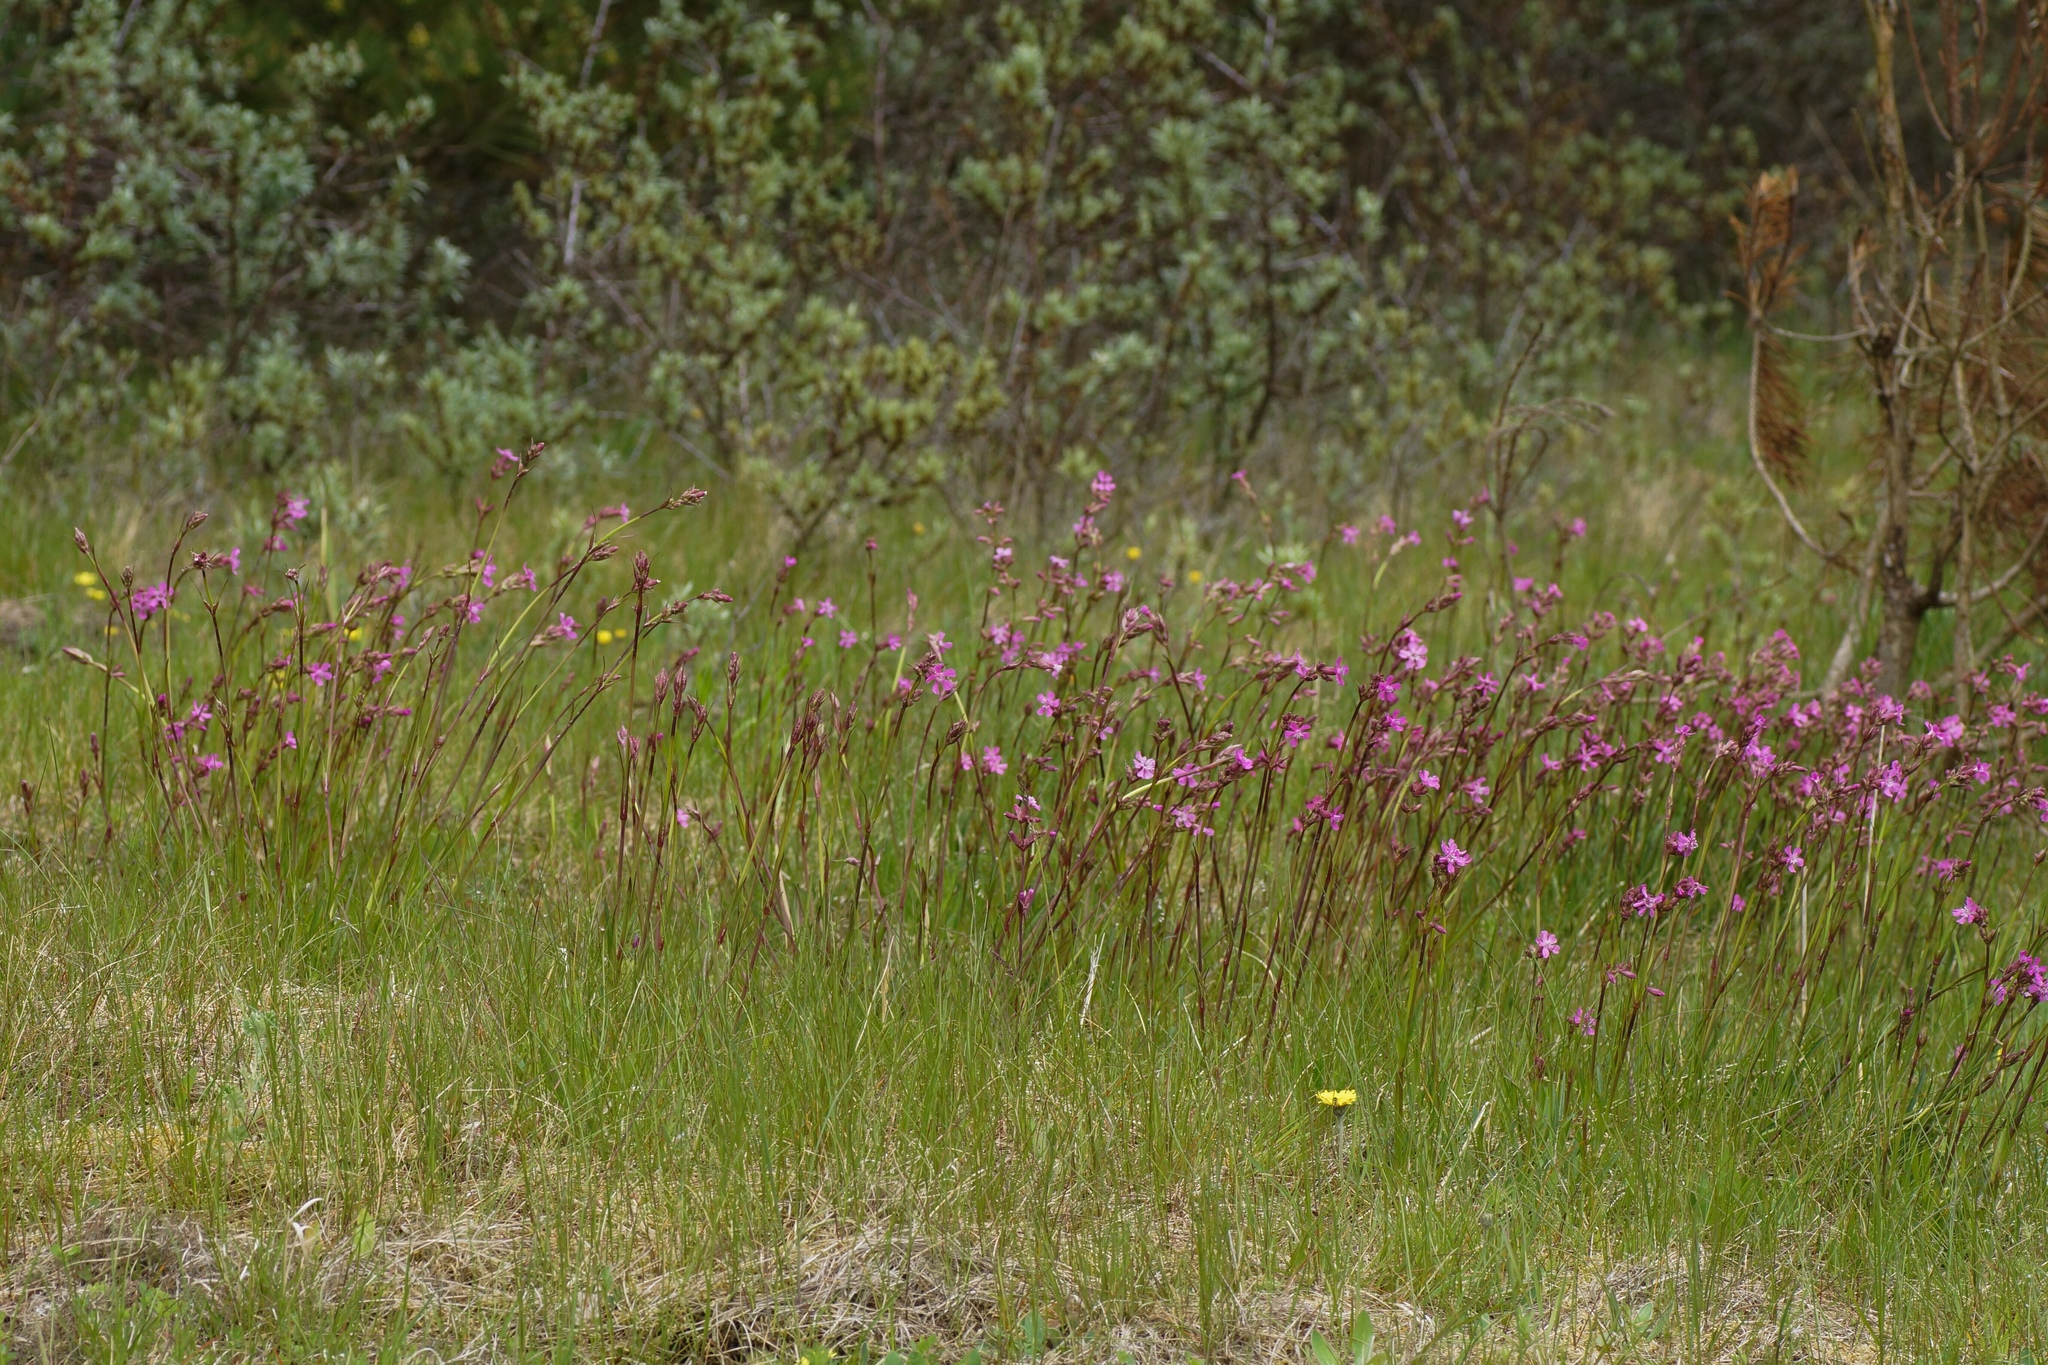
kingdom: Plantae
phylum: Tracheophyta
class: Magnoliopsida
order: Caryophyllales
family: Caryophyllaceae
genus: Viscaria
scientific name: Viscaria vulgaris
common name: Clammy campion
